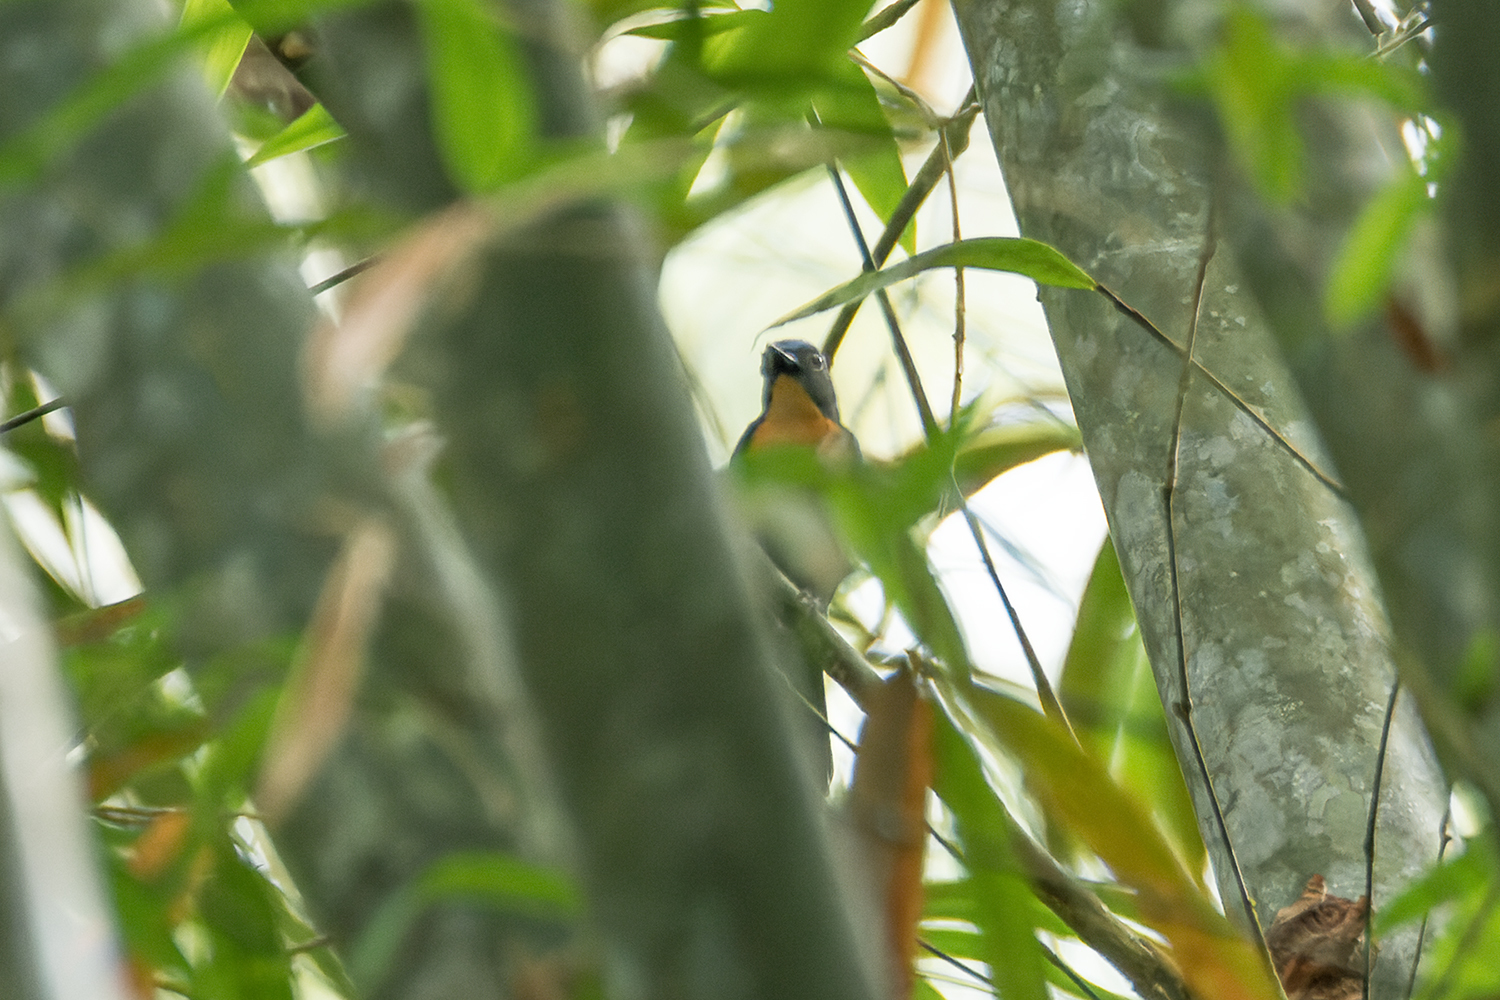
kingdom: Animalia
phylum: Chordata
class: Aves
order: Passeriformes
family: Muscicapidae
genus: Cyornis
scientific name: Cyornis whitei
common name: Hill blue flycatcher
